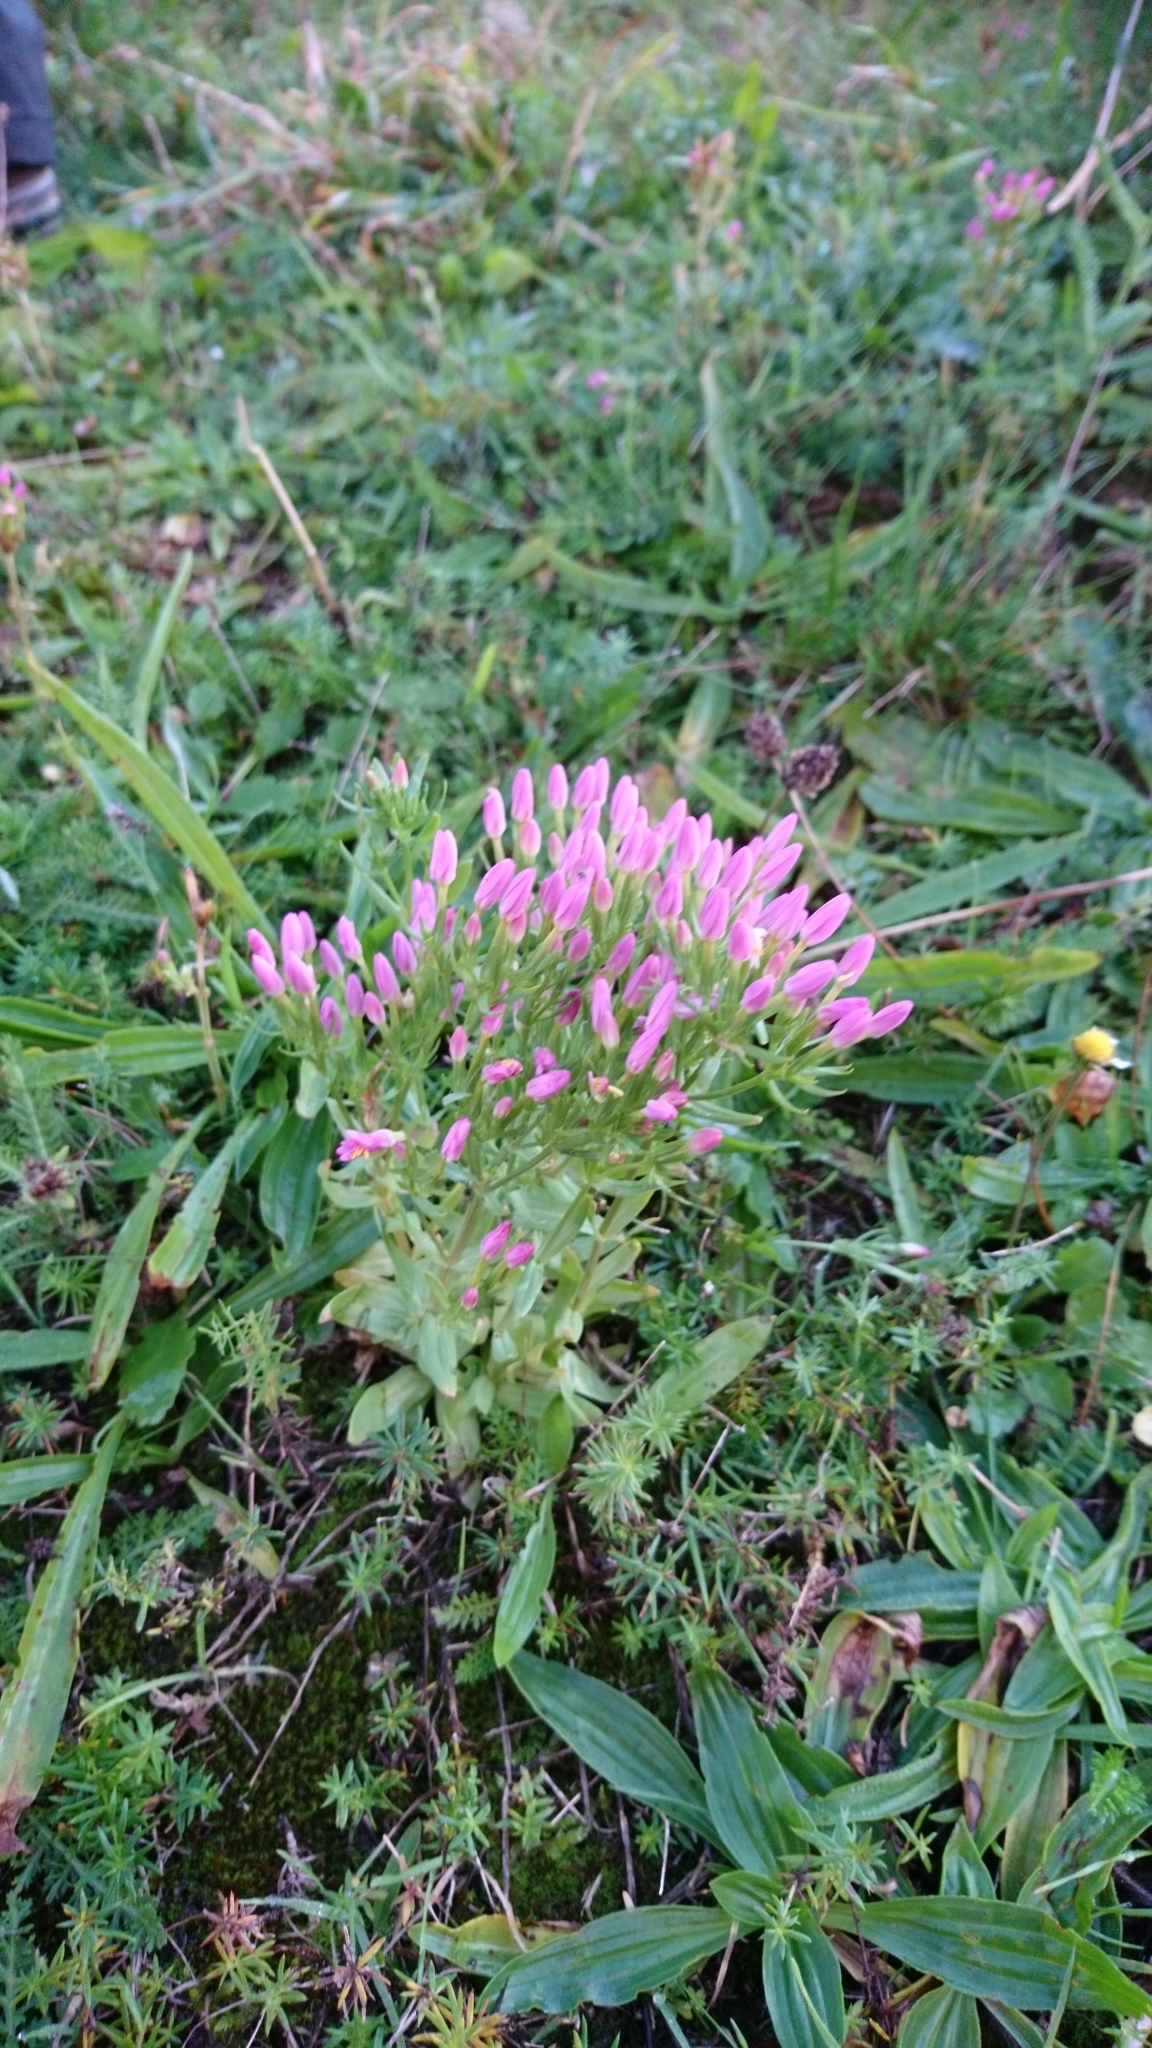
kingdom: Plantae
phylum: Tracheophyta
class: Magnoliopsida
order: Gentianales
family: Gentianaceae
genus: Centaurium
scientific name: Centaurium erythraea
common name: Common centaury
